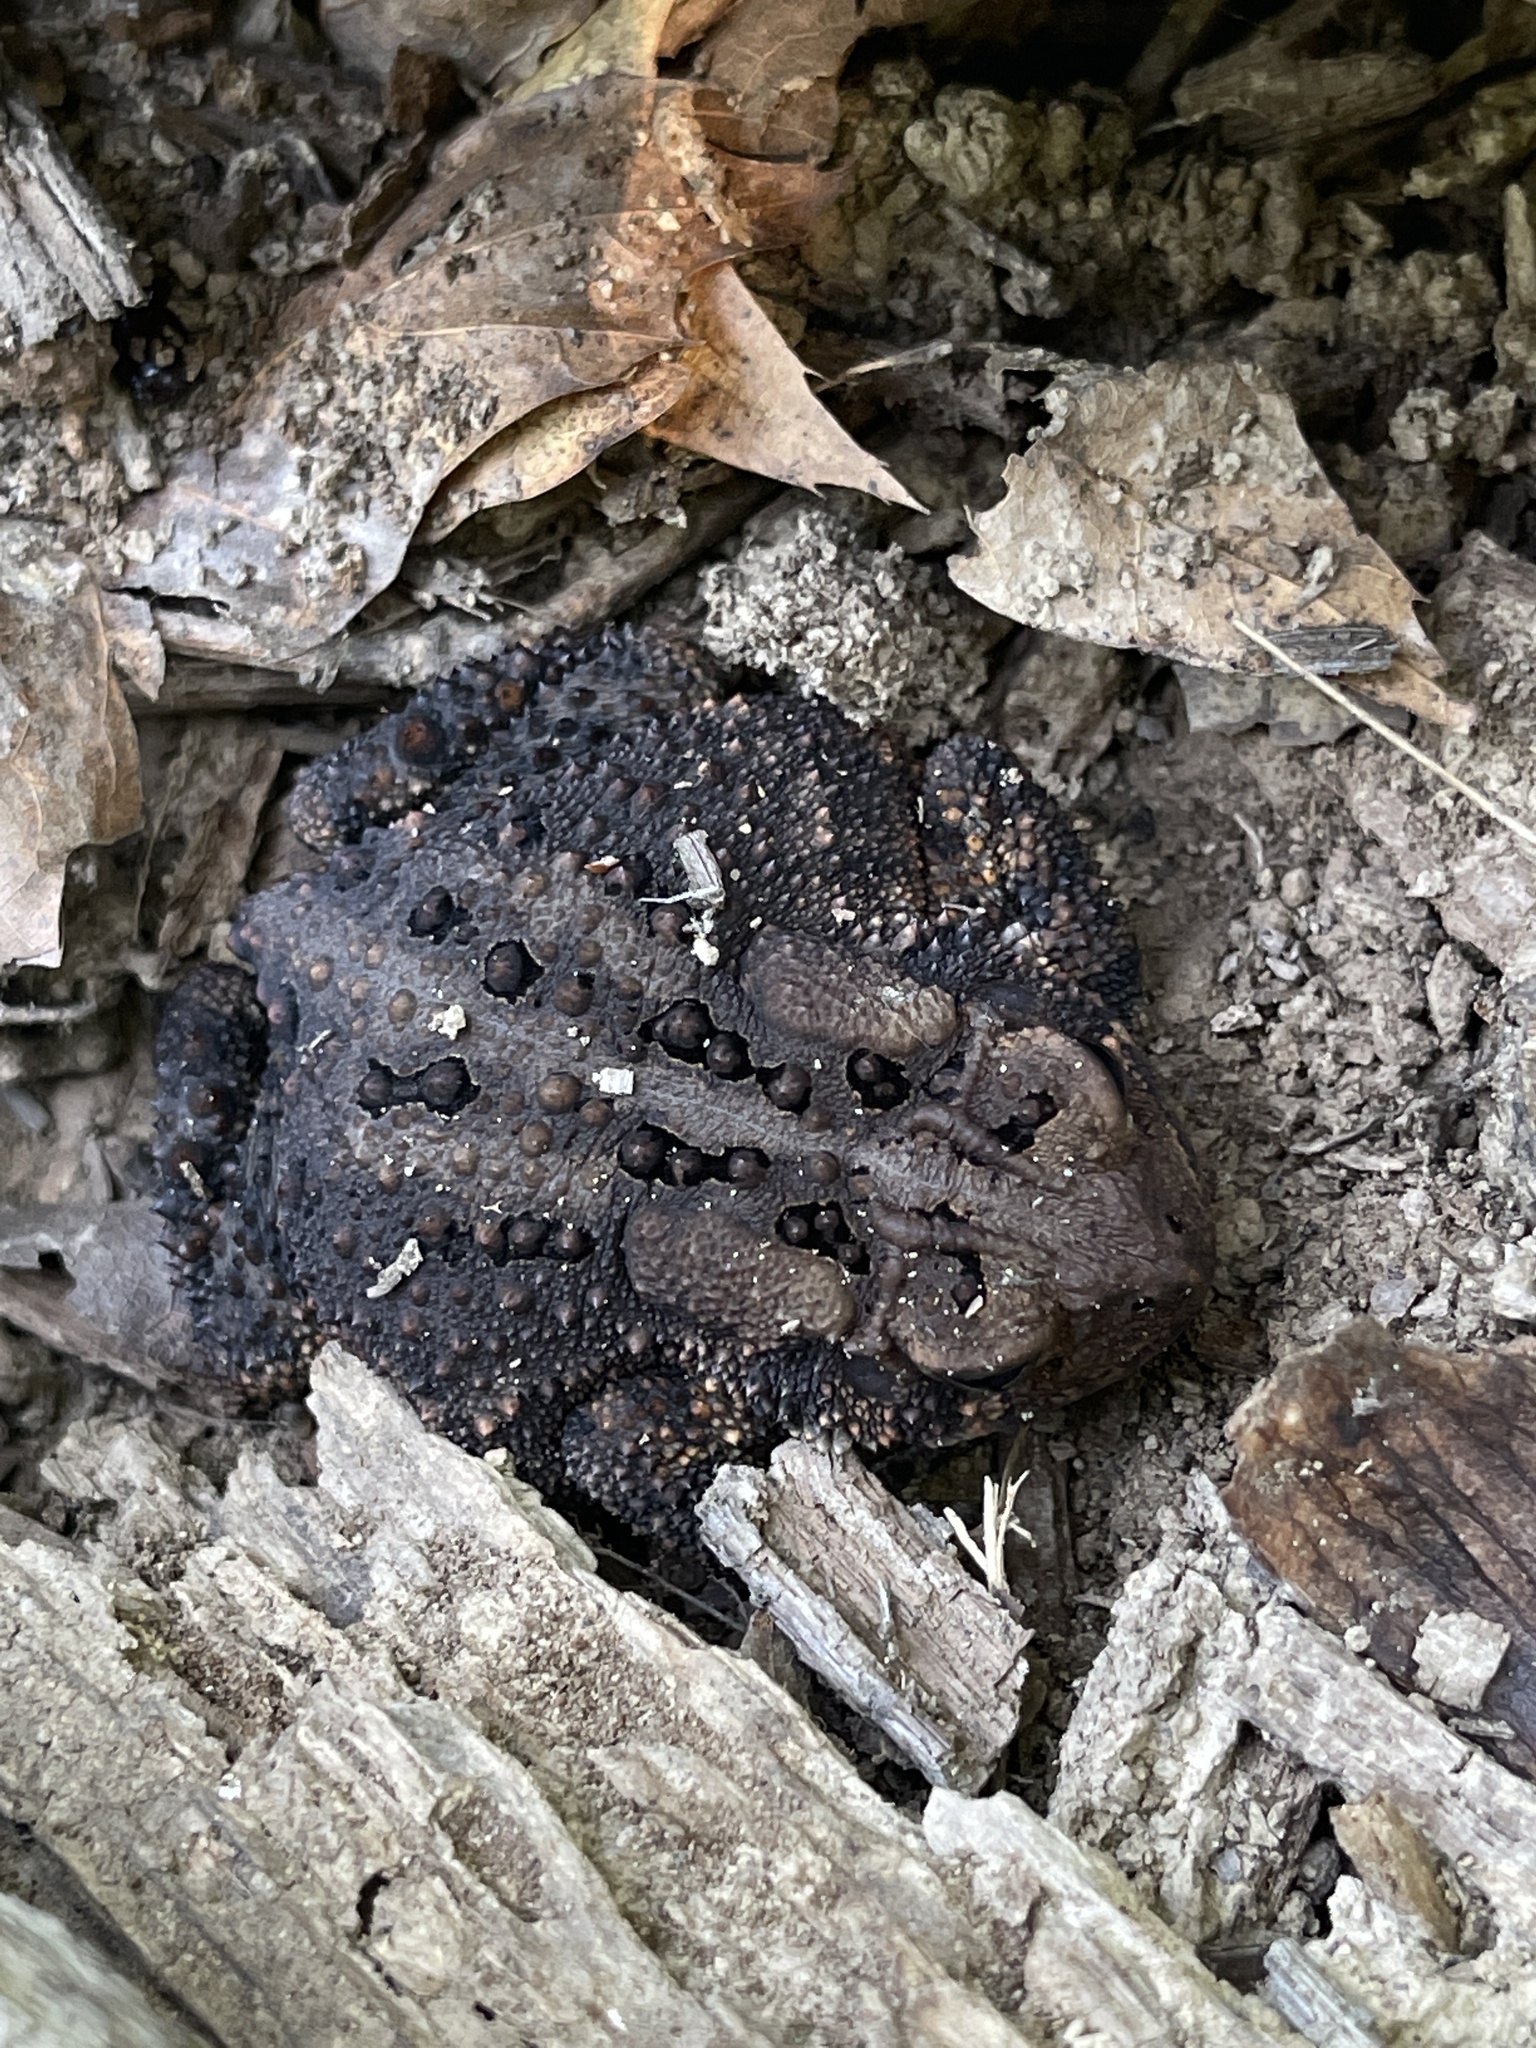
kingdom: Animalia
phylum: Chordata
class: Amphibia
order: Anura
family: Bufonidae
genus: Anaxyrus
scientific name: Anaxyrus americanus
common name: American toad
